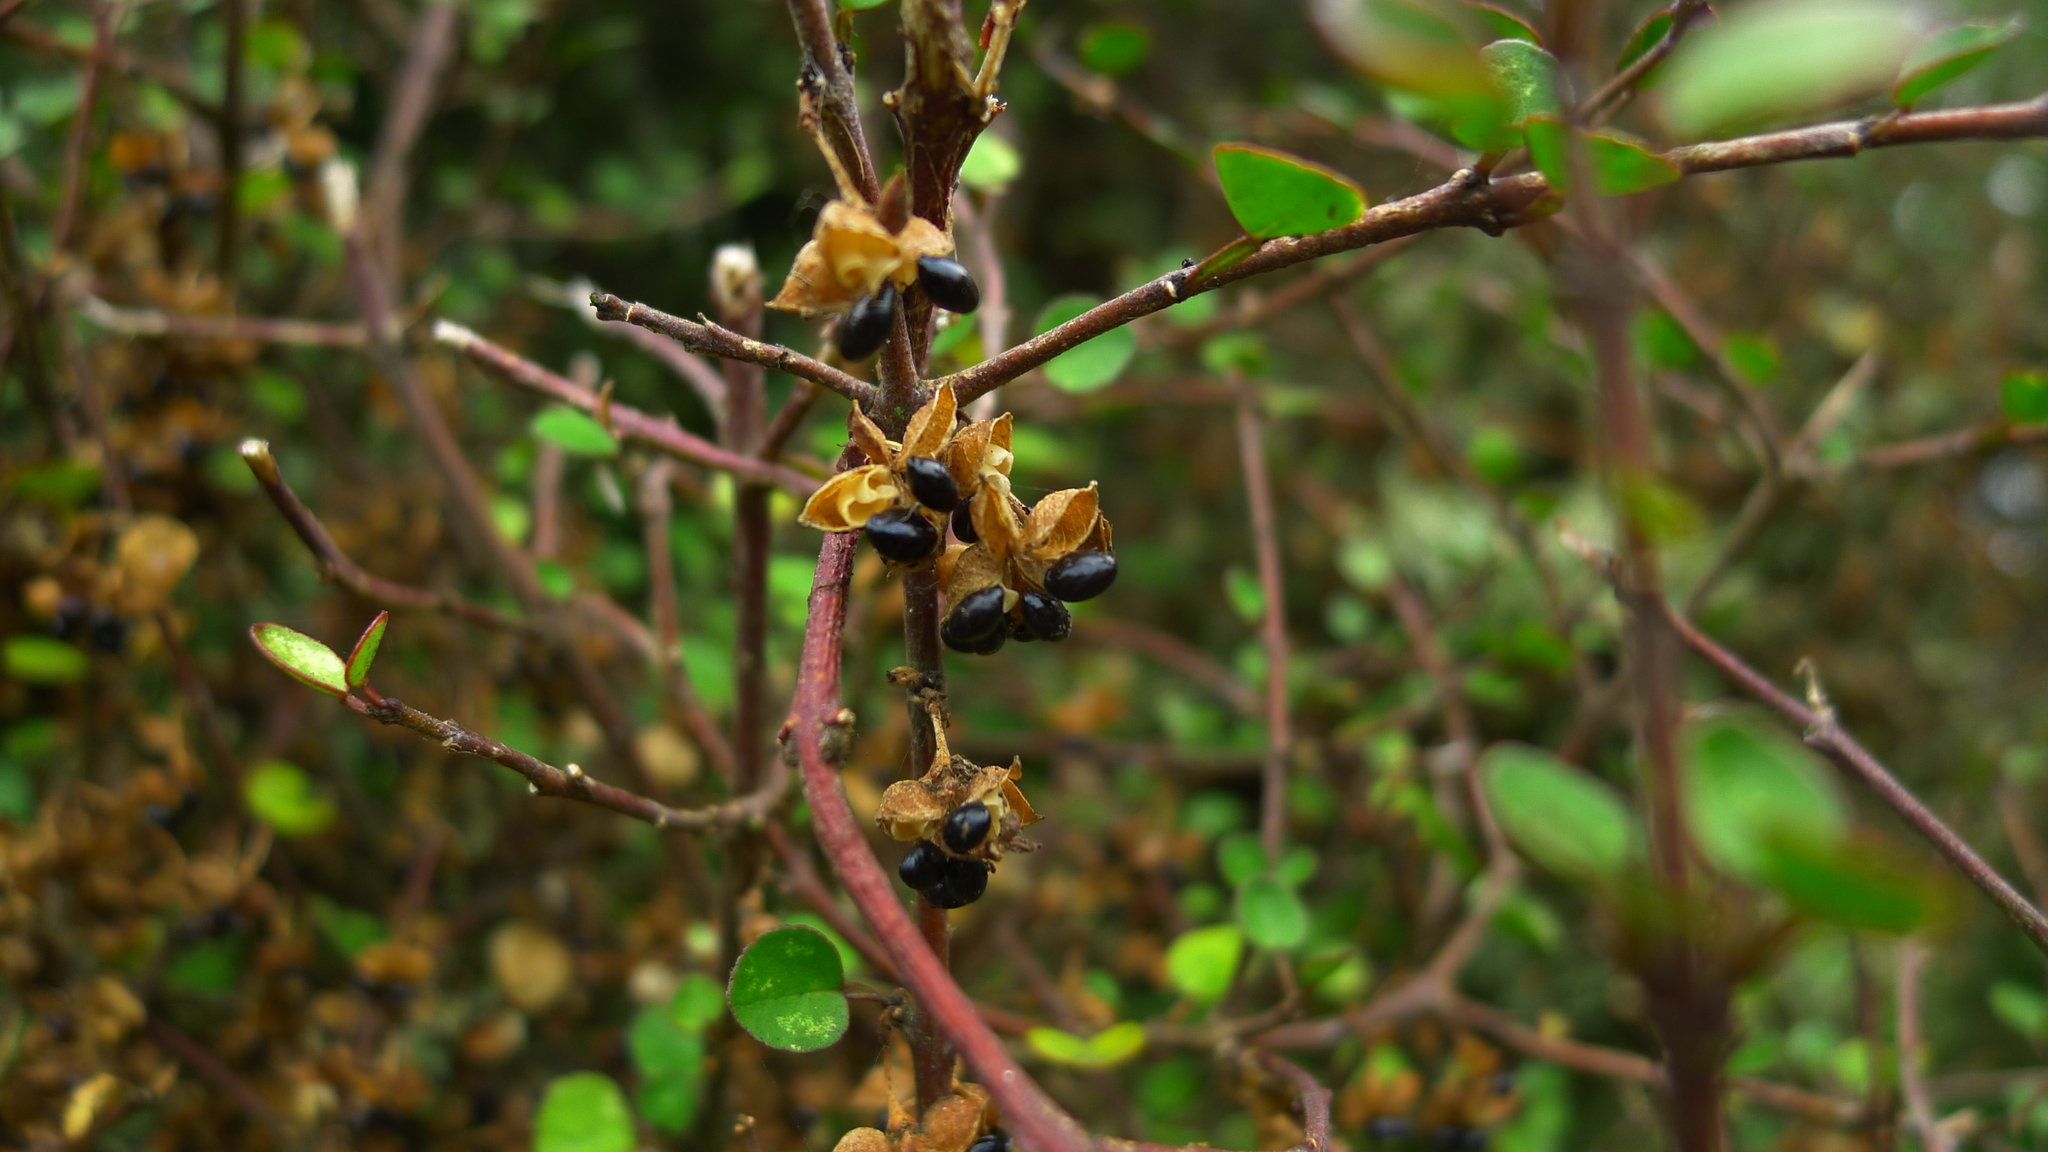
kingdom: Plantae
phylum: Tracheophyta
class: Magnoliopsida
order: Sapindales
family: Rutaceae
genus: Melicope
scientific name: Melicope simplex
